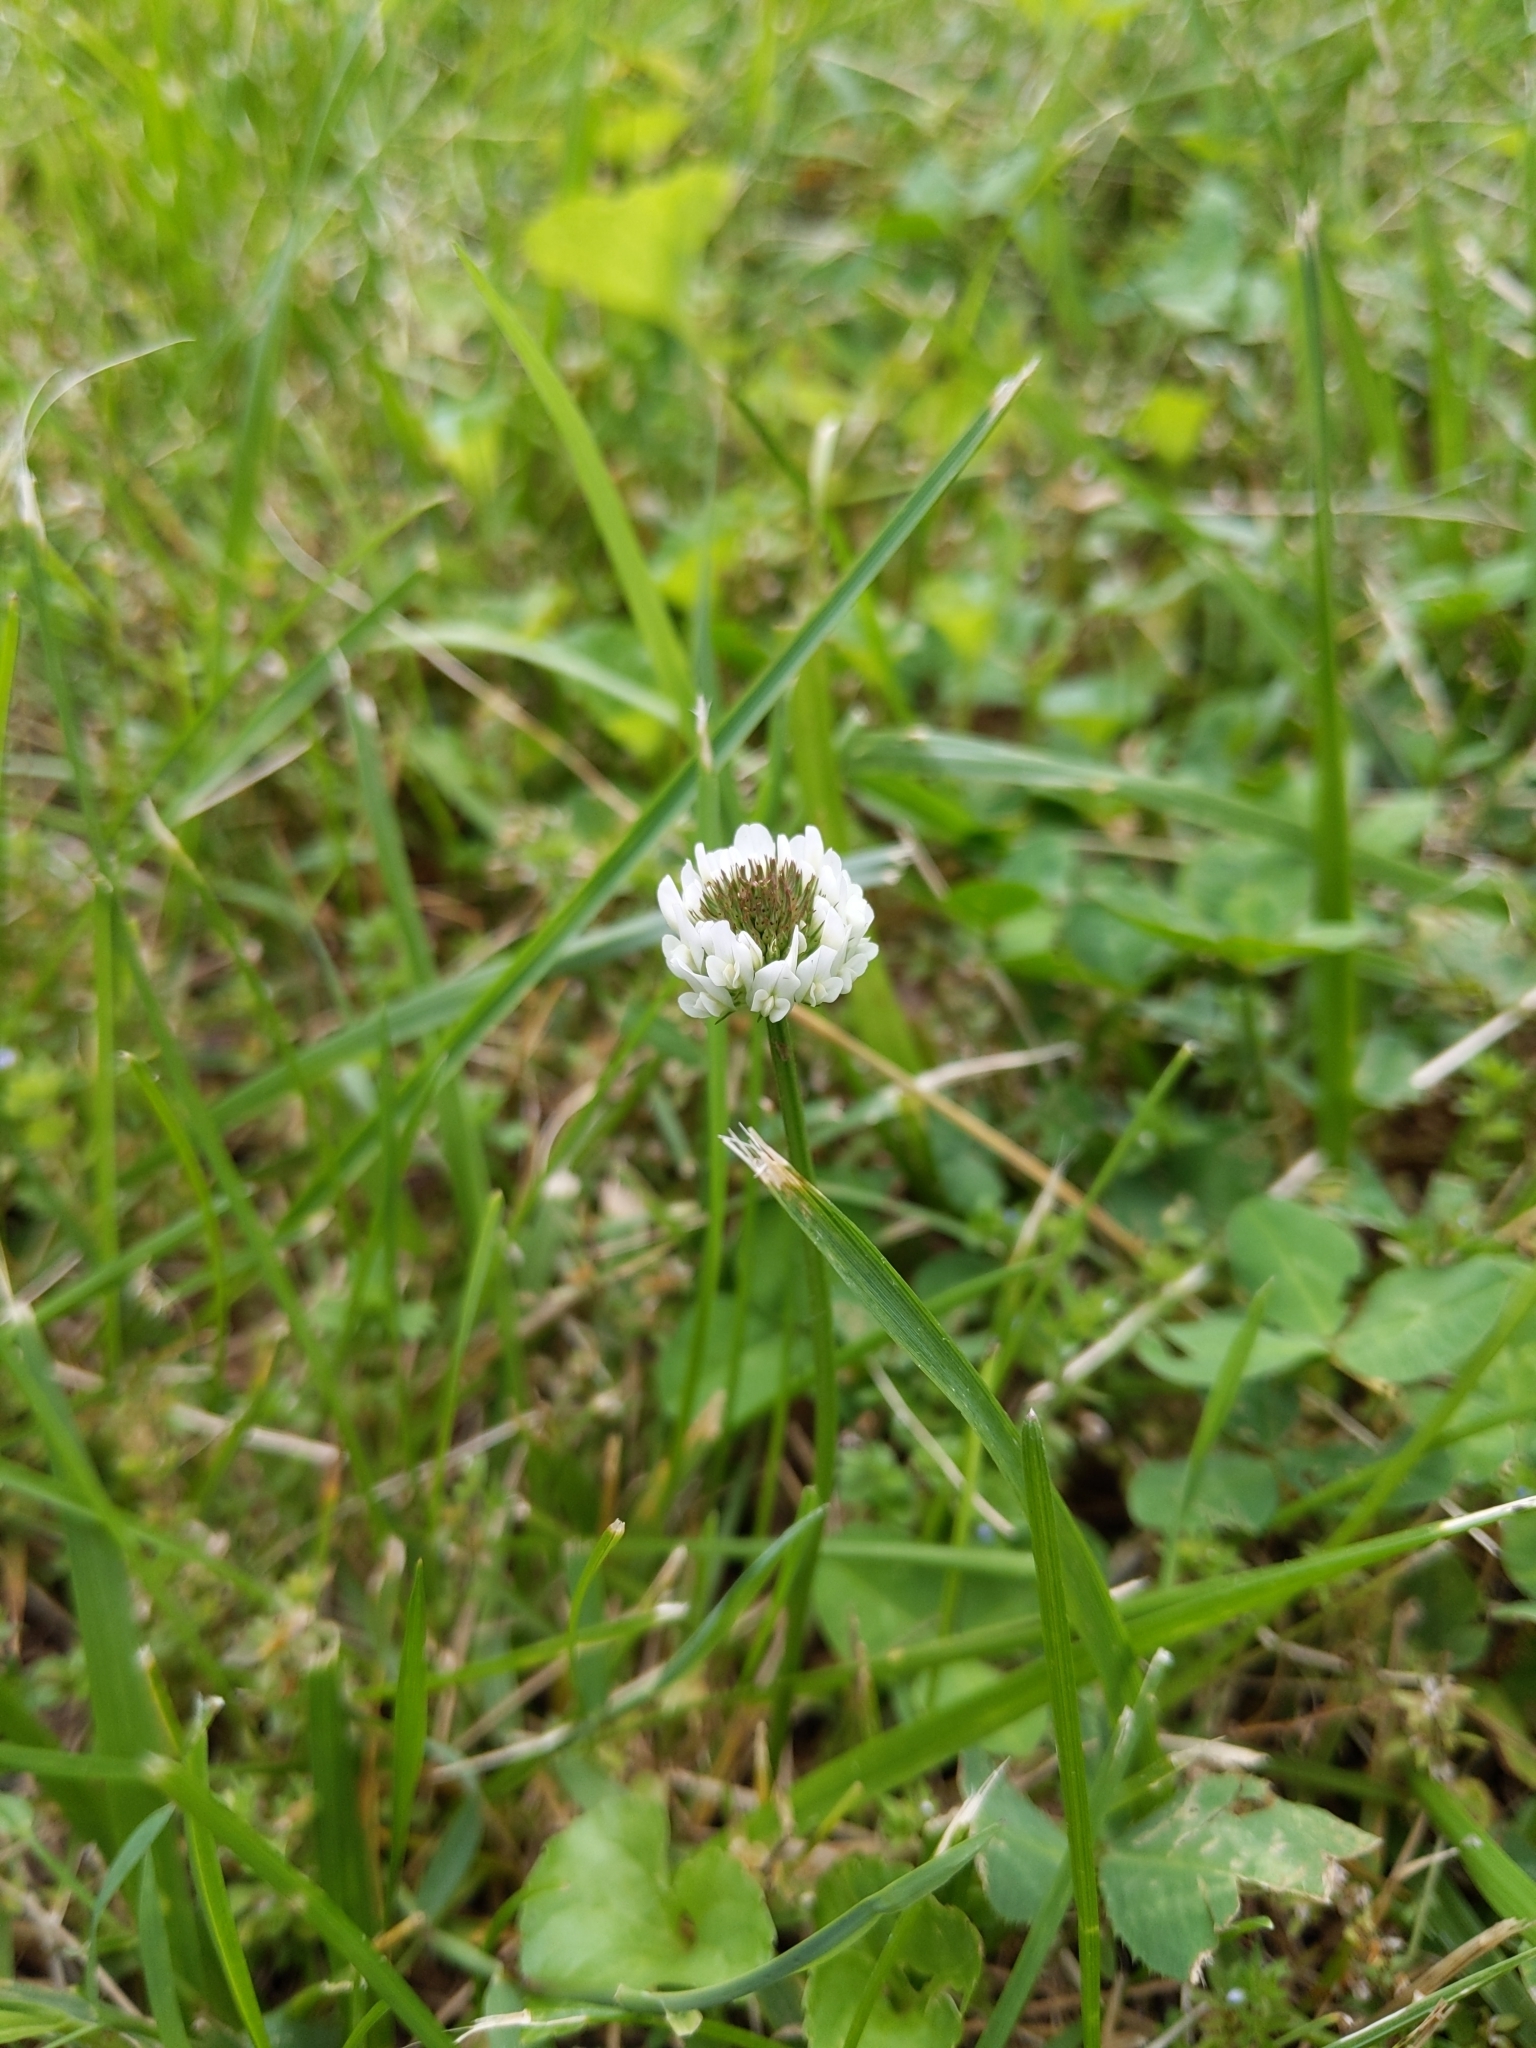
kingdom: Plantae
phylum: Tracheophyta
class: Magnoliopsida
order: Fabales
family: Fabaceae
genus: Trifolium
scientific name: Trifolium repens
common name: White clover
